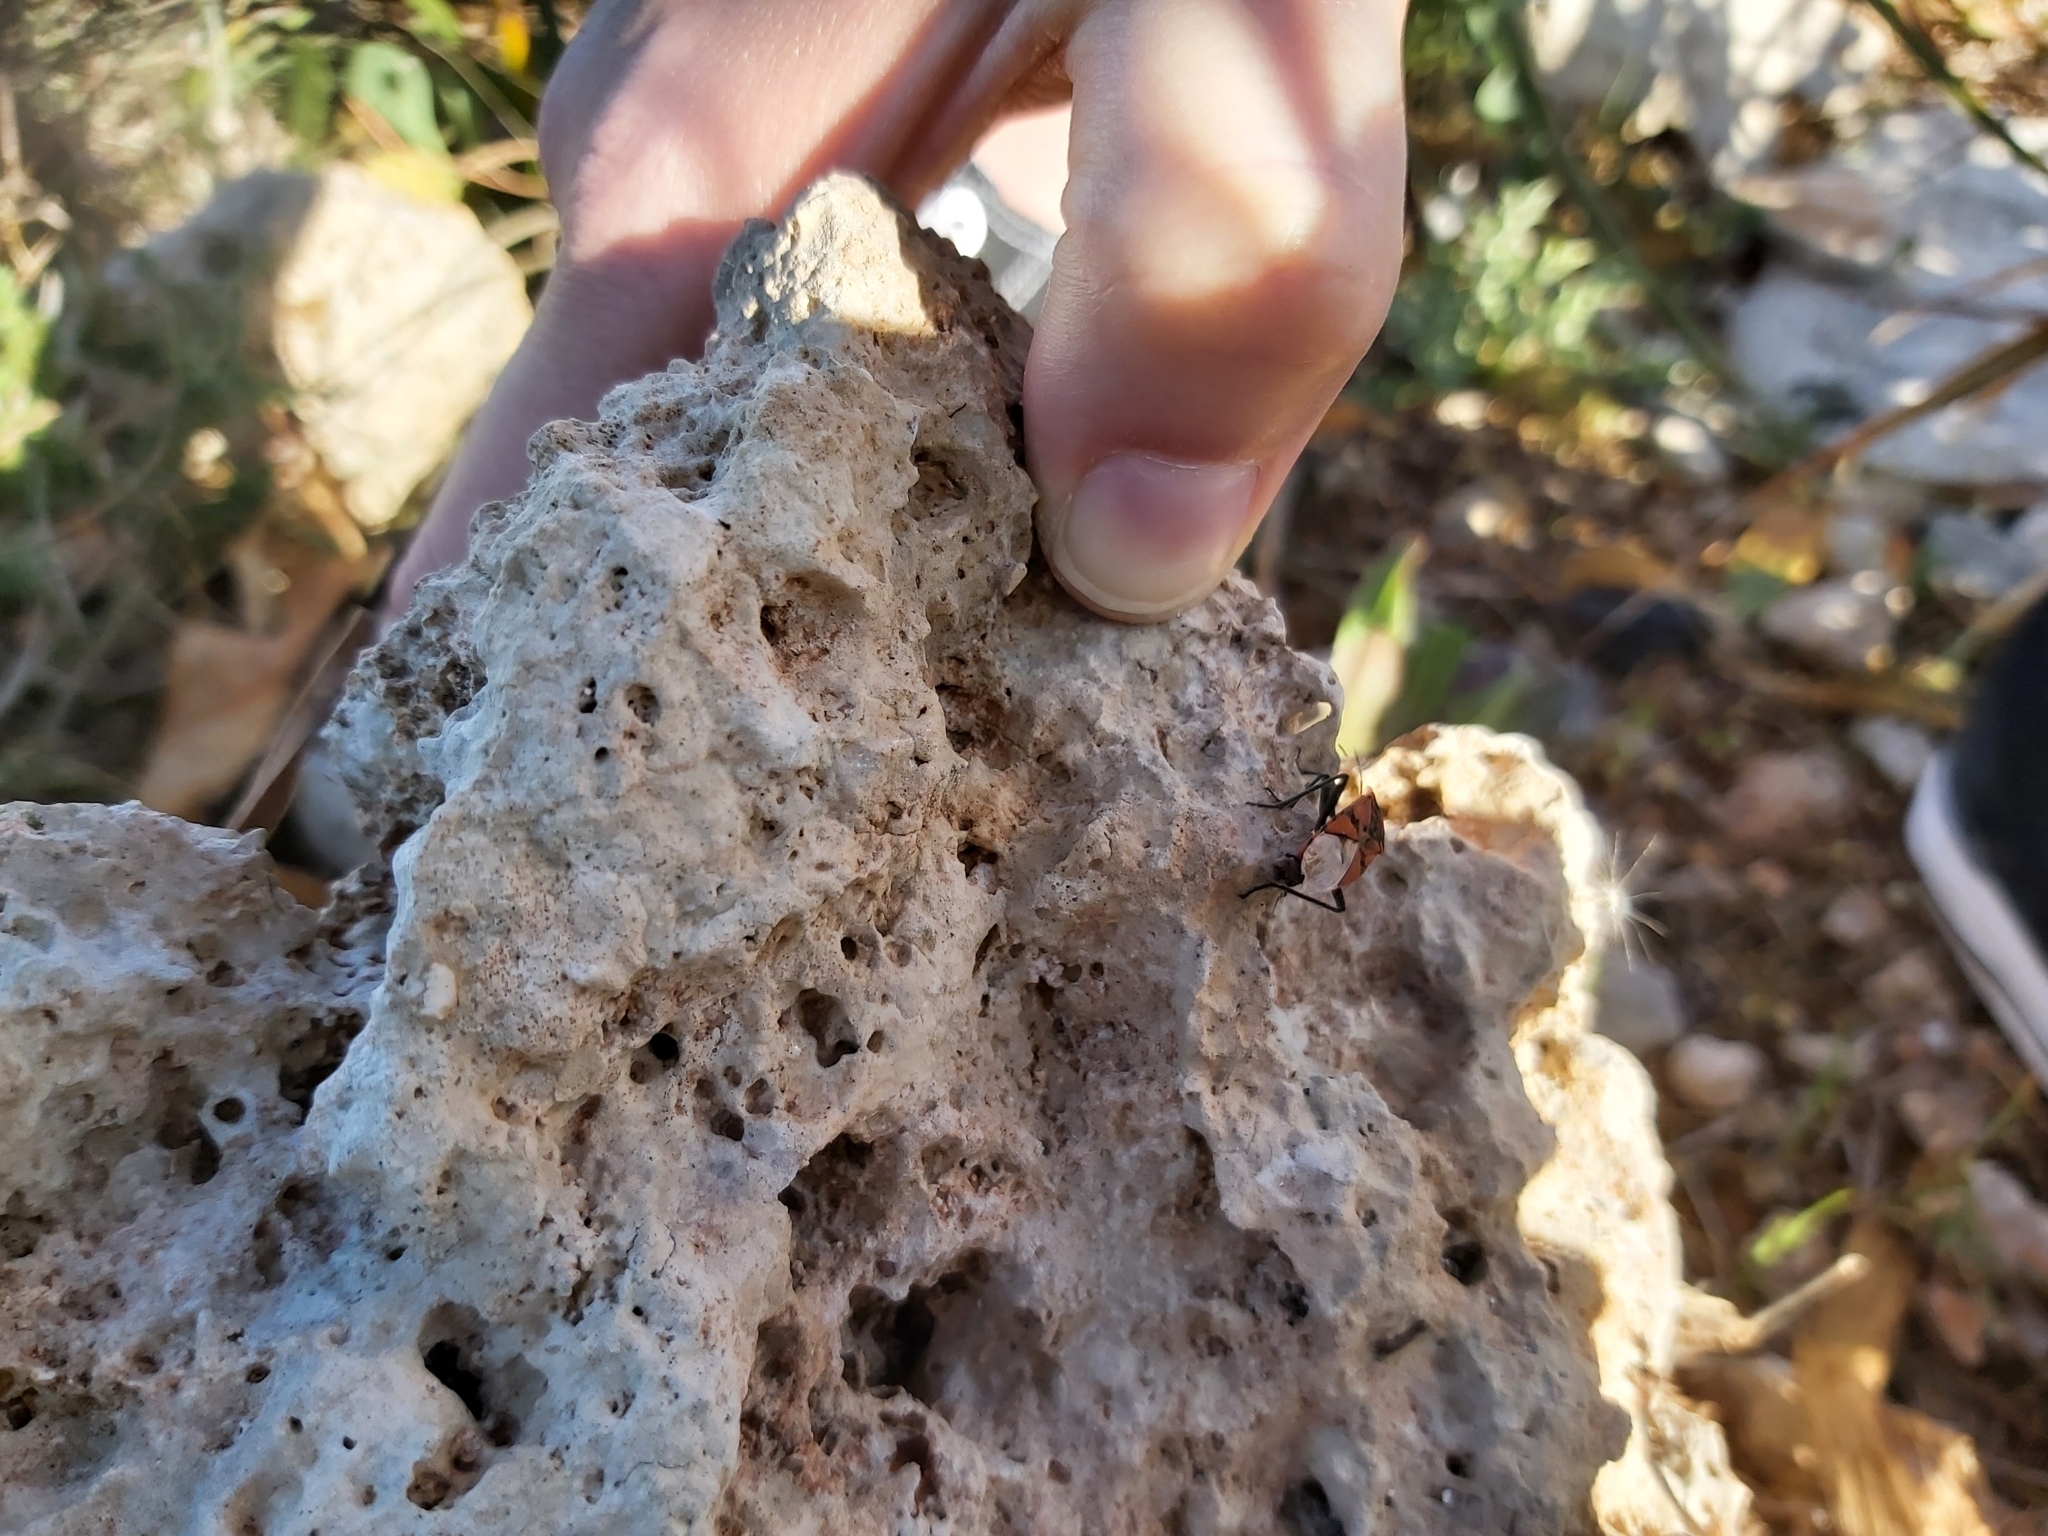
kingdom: Animalia
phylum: Arthropoda
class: Insecta
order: Hemiptera
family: Lygaeidae
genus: Spilostethus
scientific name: Spilostethus pandurus
